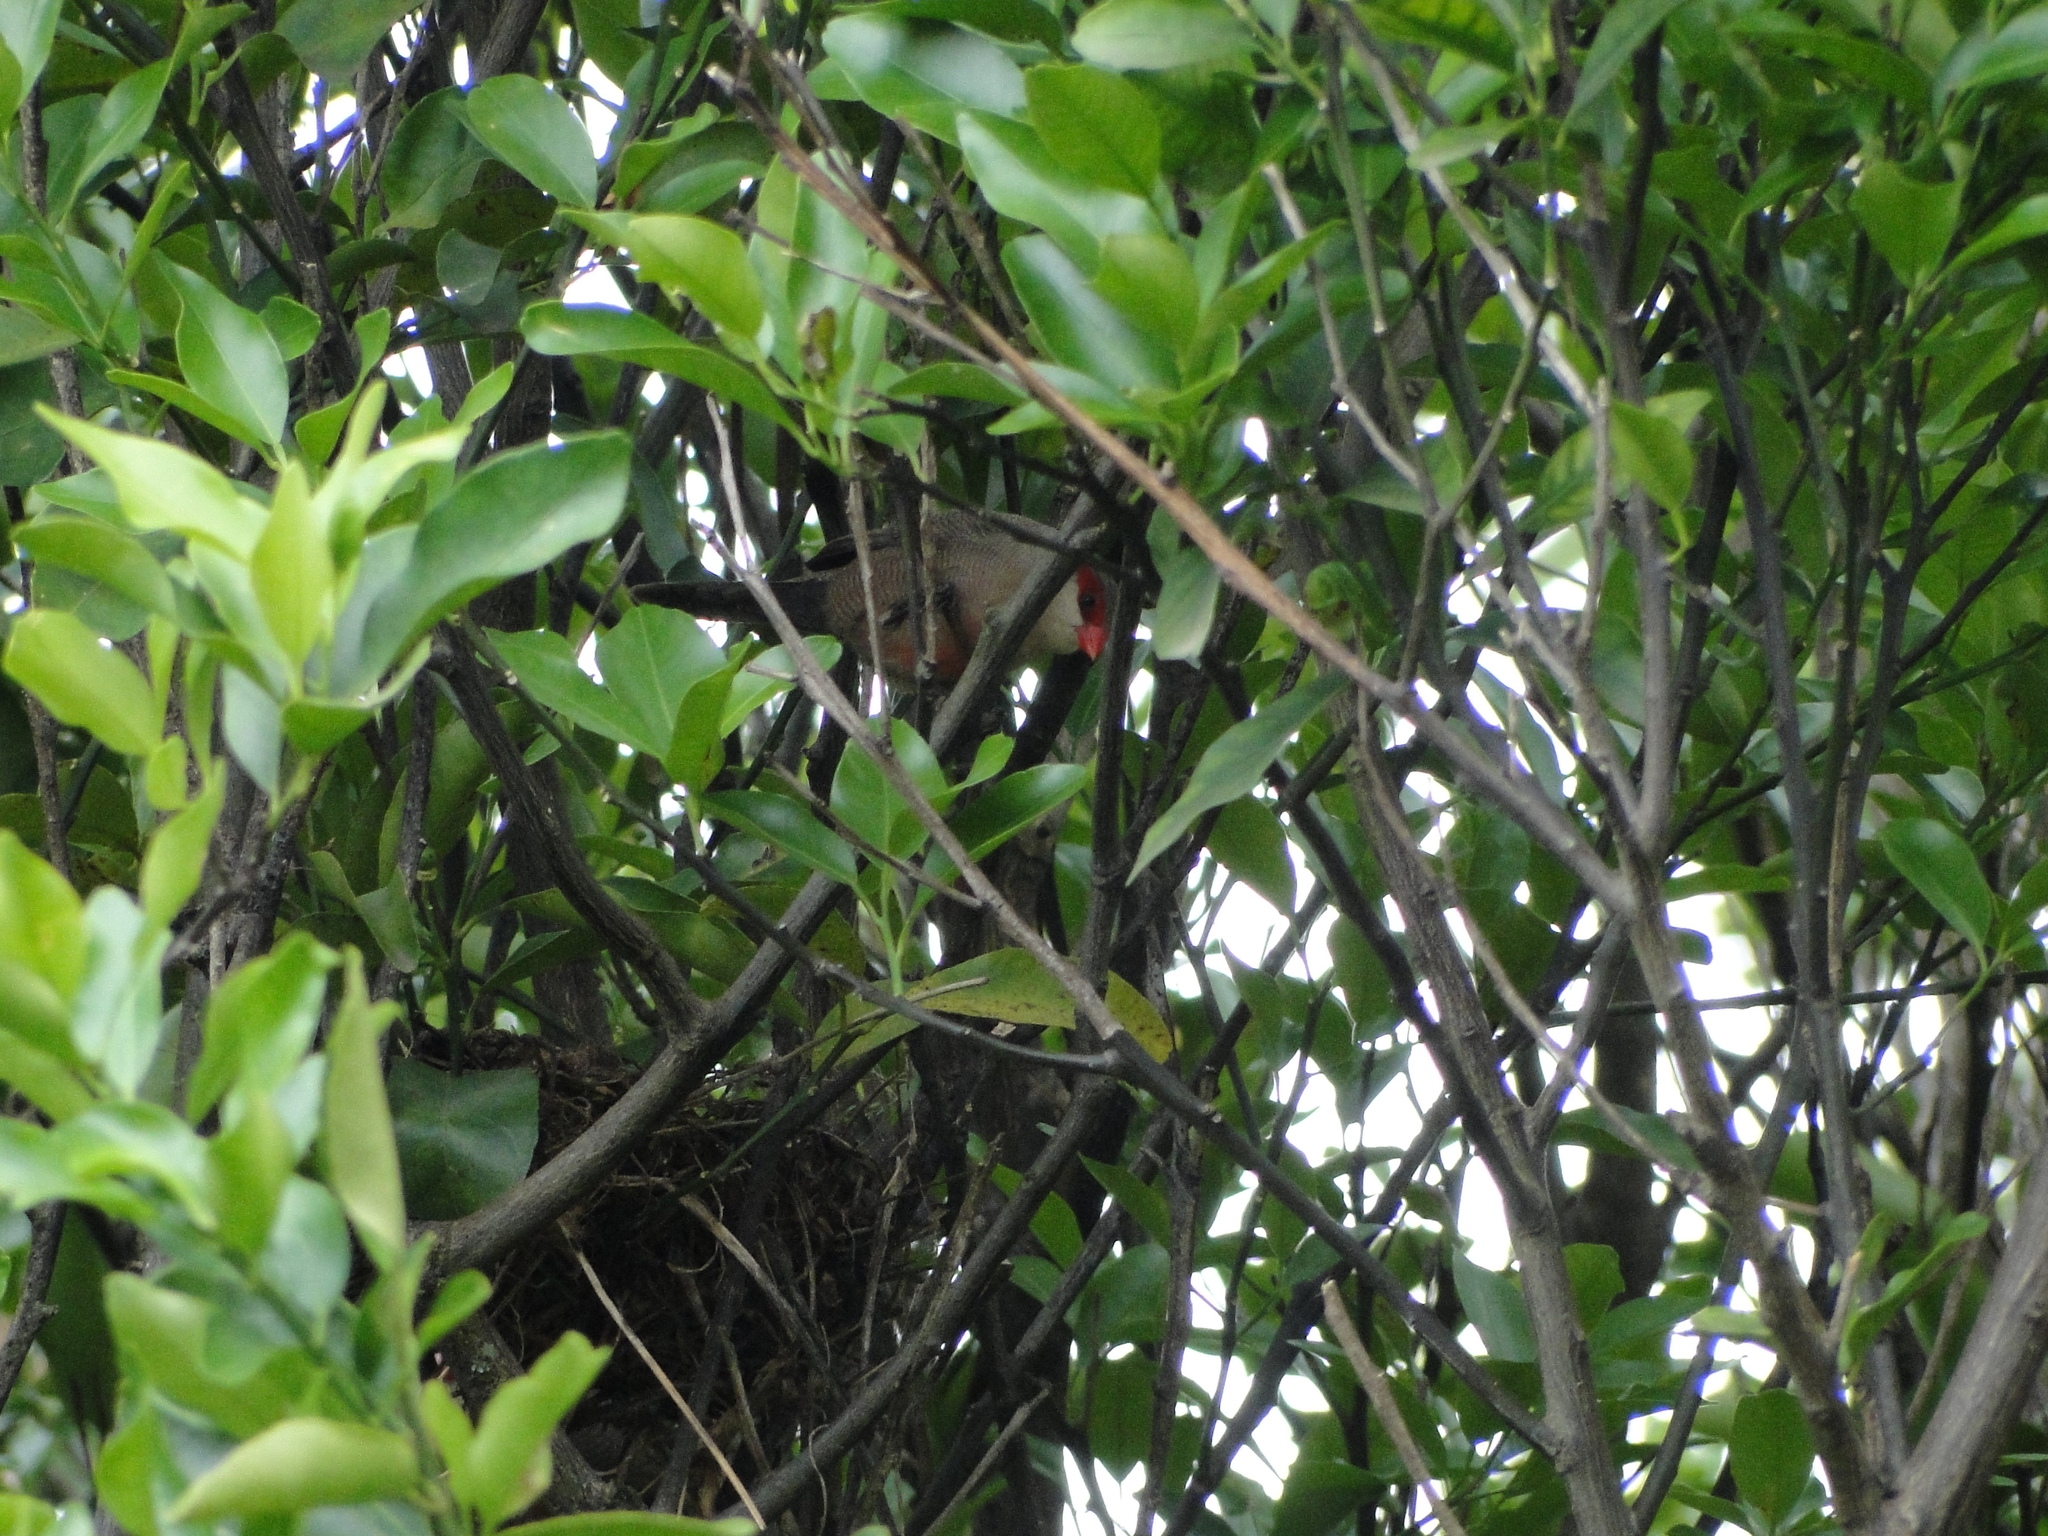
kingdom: Animalia
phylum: Chordata
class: Aves
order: Passeriformes
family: Estrildidae
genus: Estrilda
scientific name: Estrilda astrild
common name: Common waxbill
